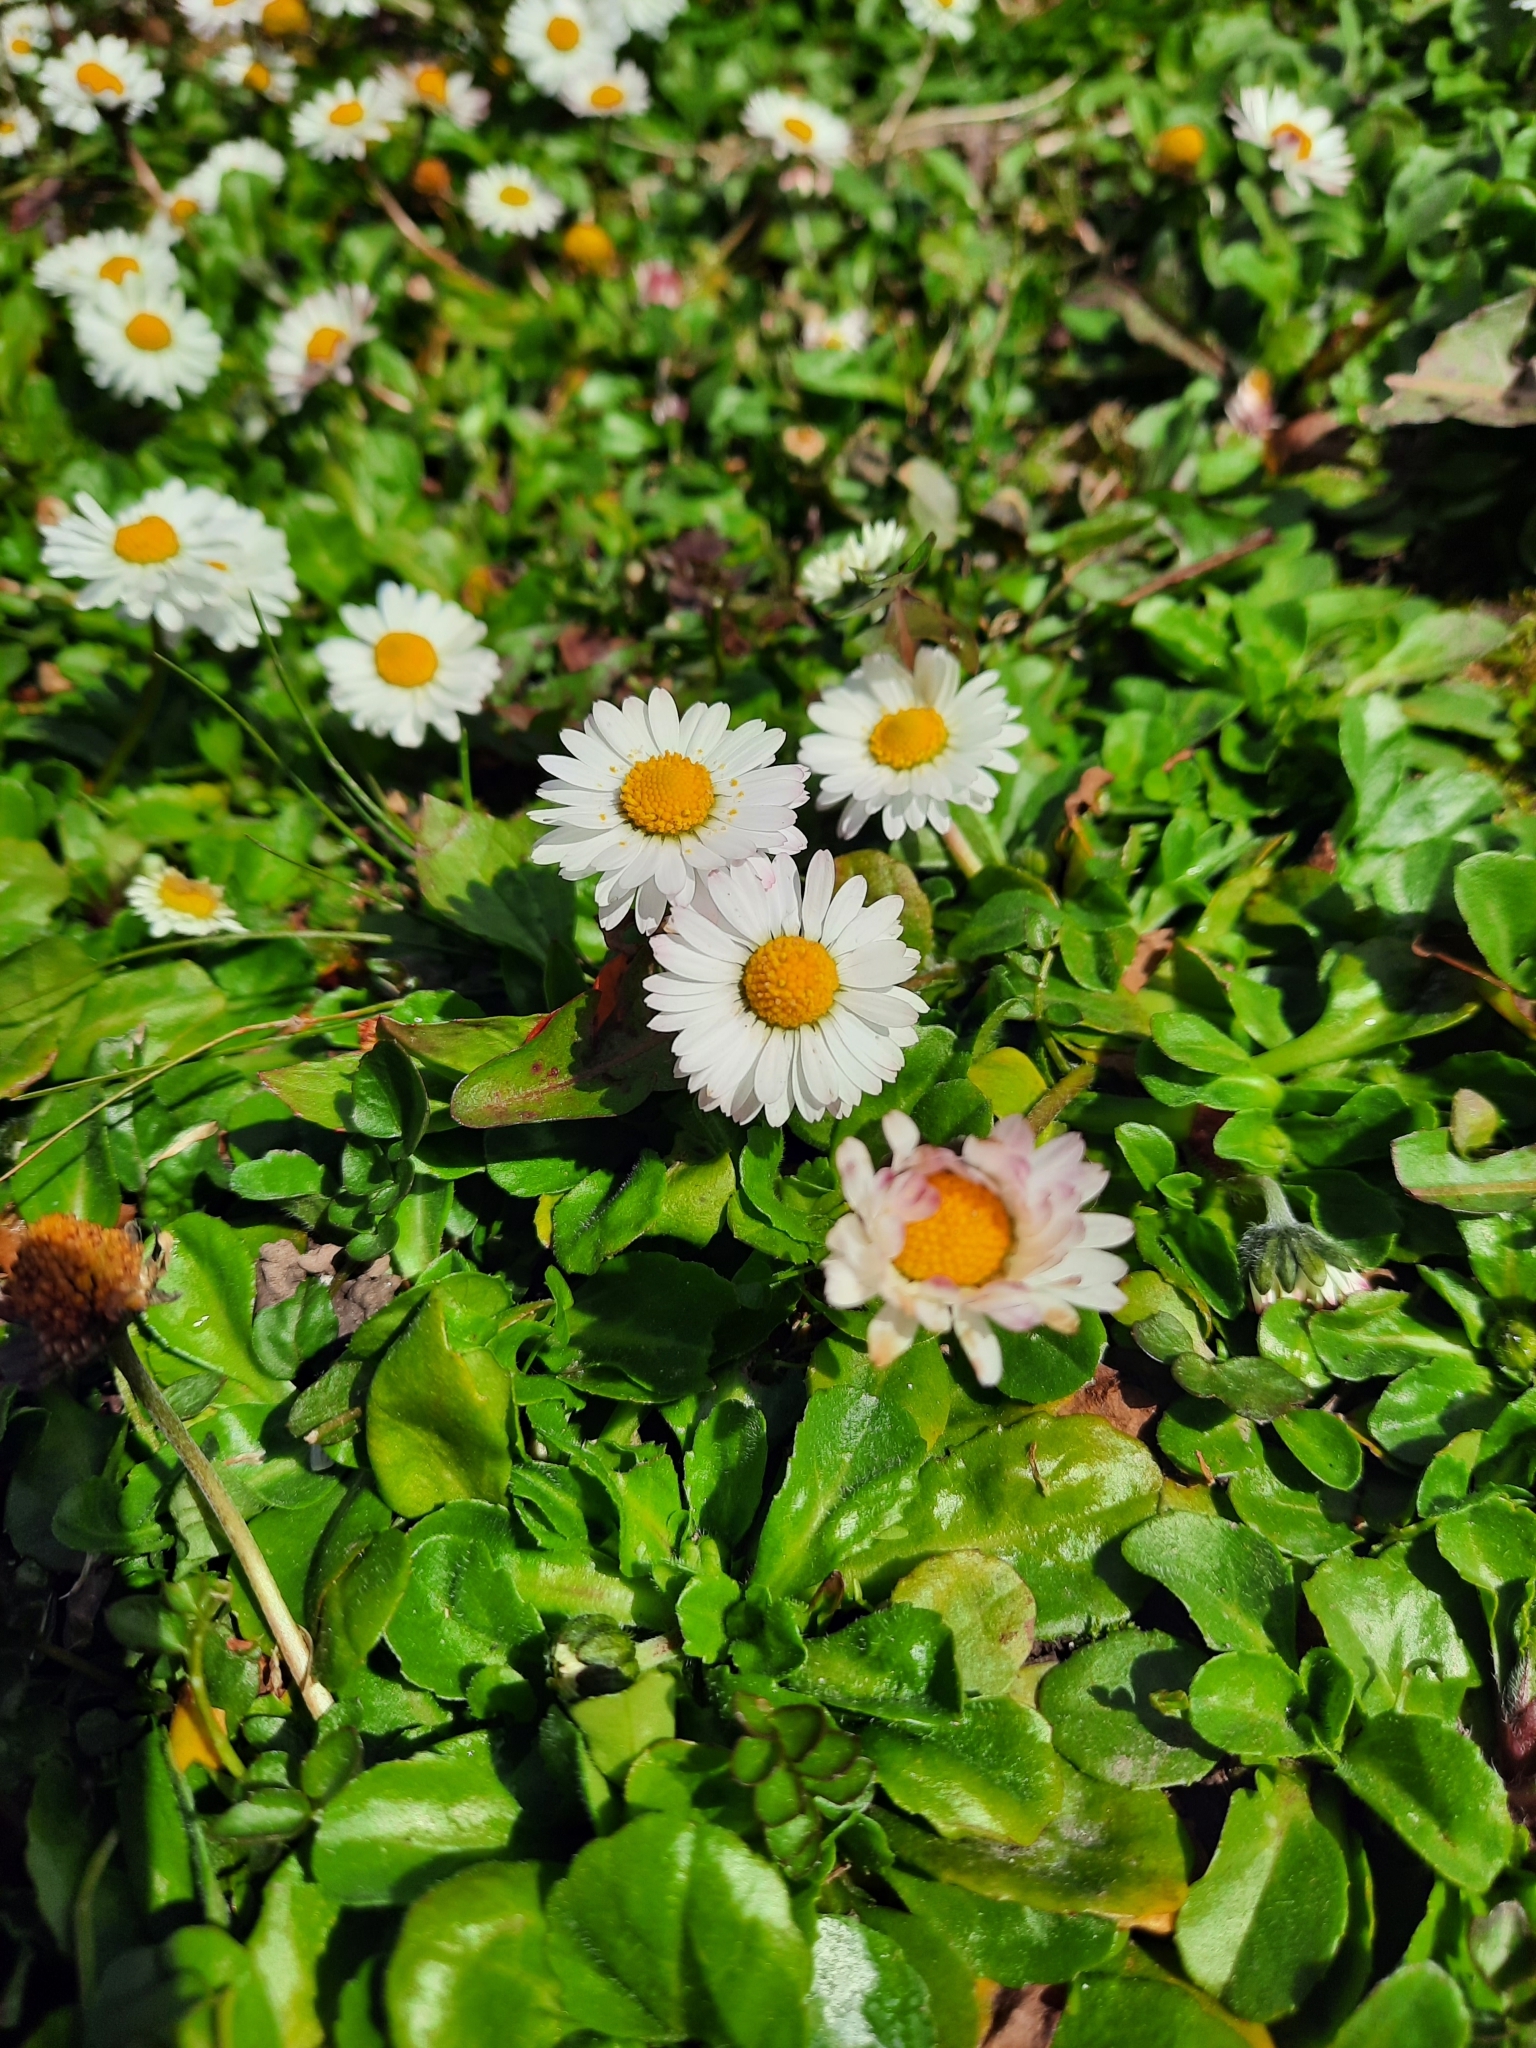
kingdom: Plantae
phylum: Tracheophyta
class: Magnoliopsida
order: Asterales
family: Asteraceae
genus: Bellis
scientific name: Bellis perennis
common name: Lawndaisy
